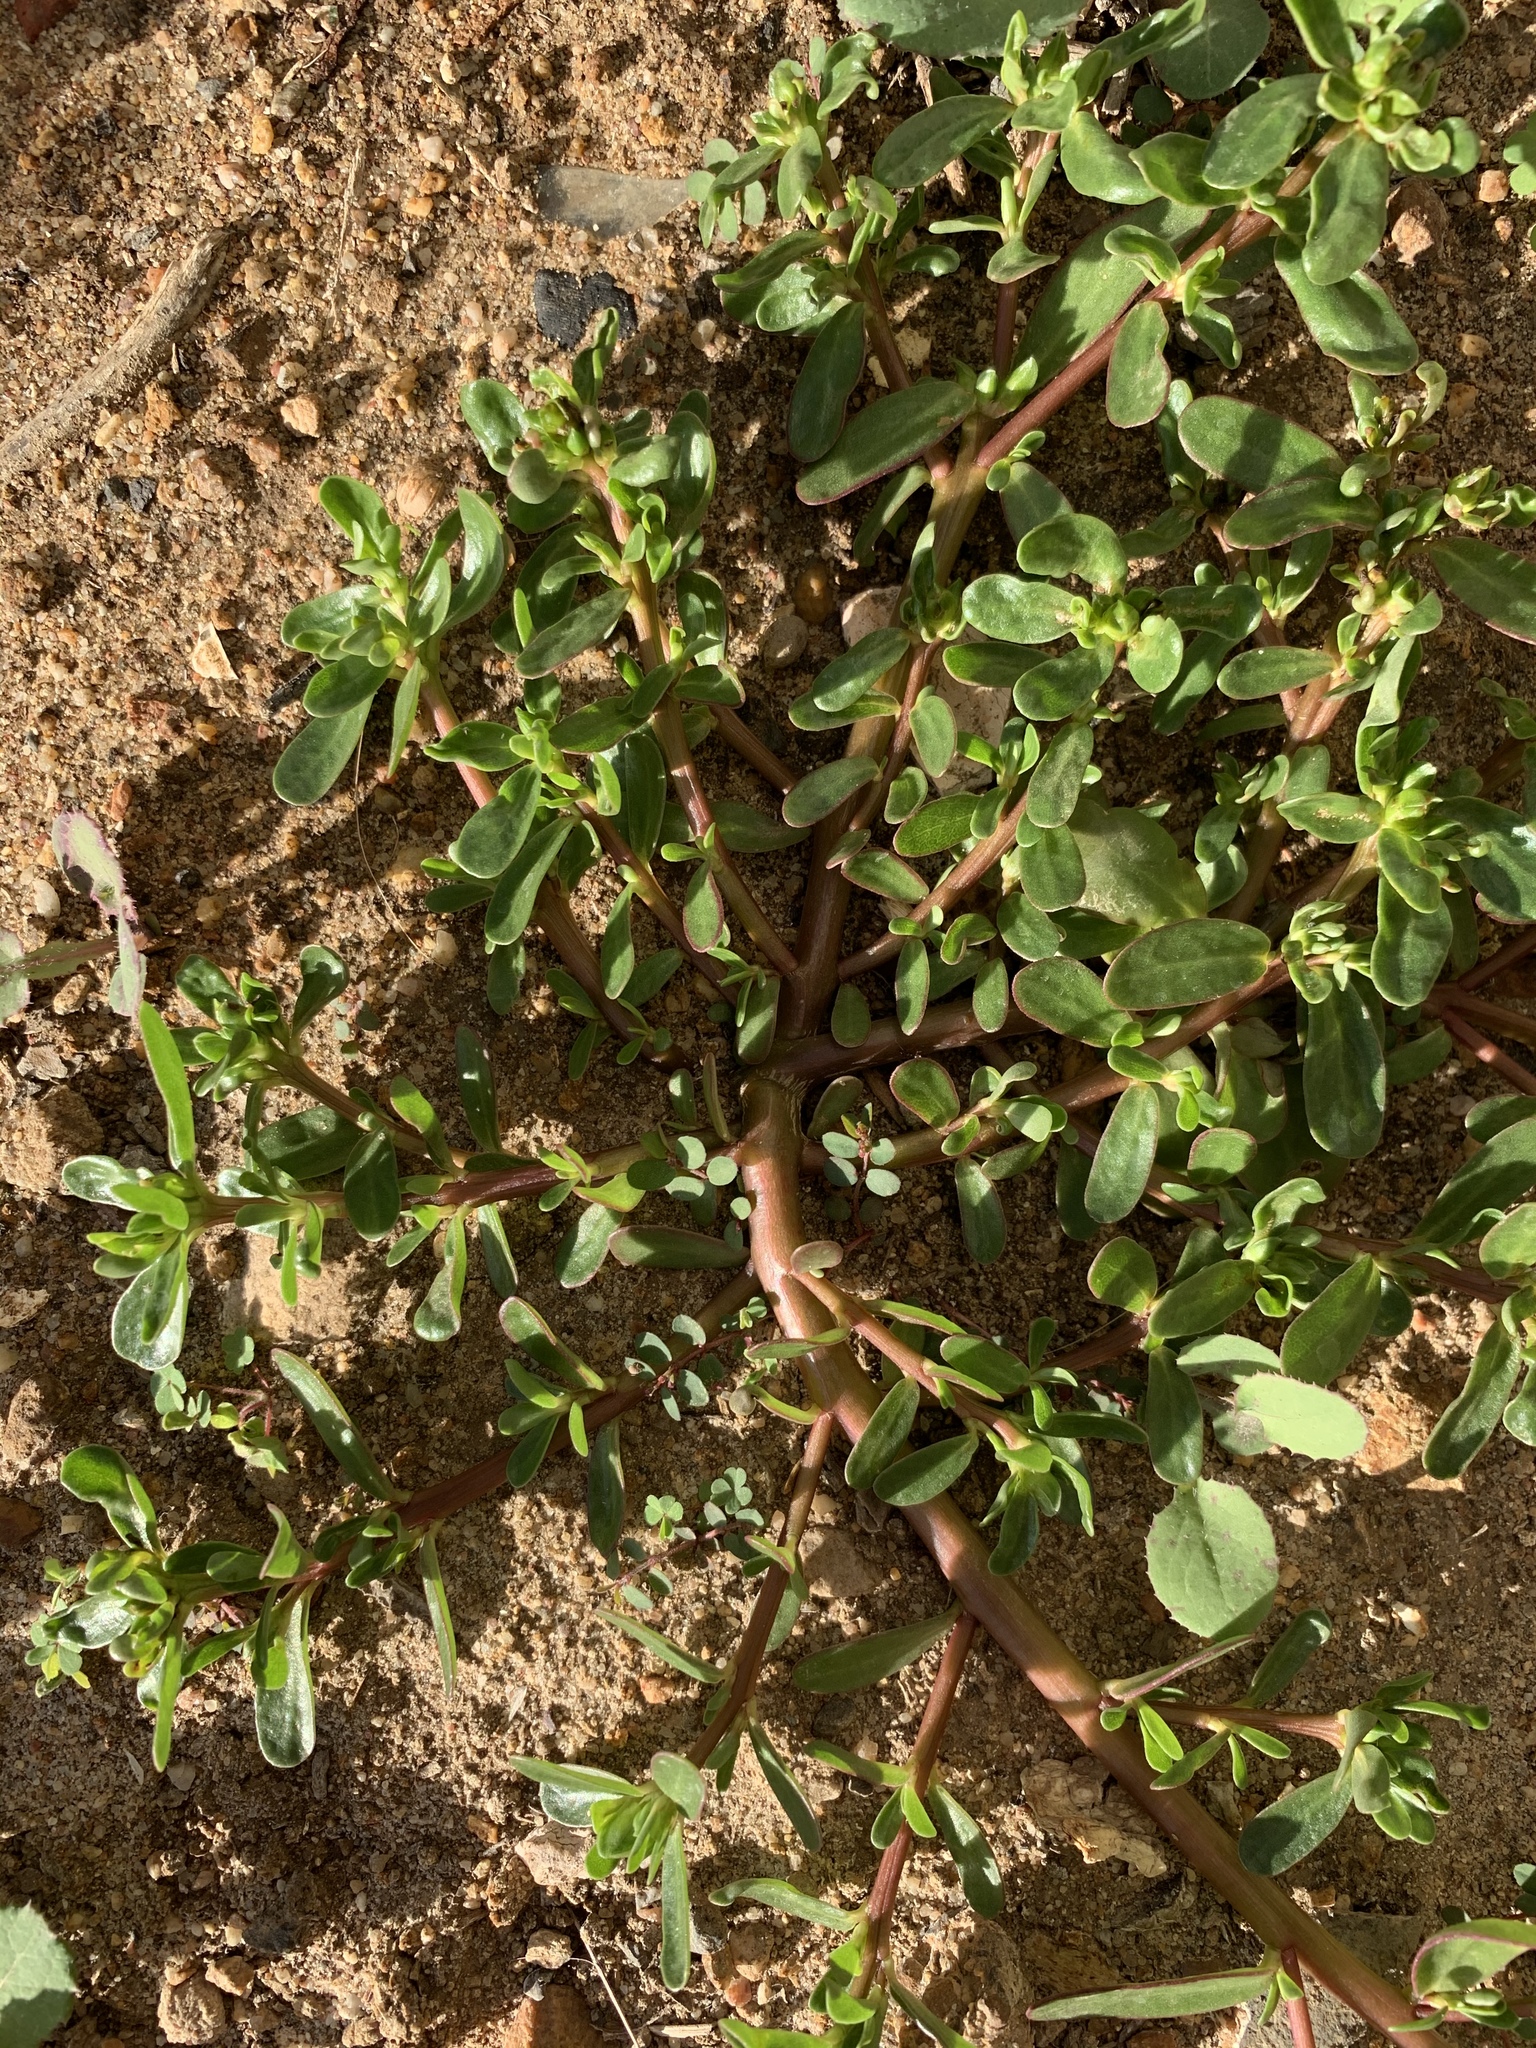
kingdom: Plantae
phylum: Tracheophyta
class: Magnoliopsida
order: Caryophyllales
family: Portulacaceae
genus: Portulaca
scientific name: Portulaca oleracea
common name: Common purslane
